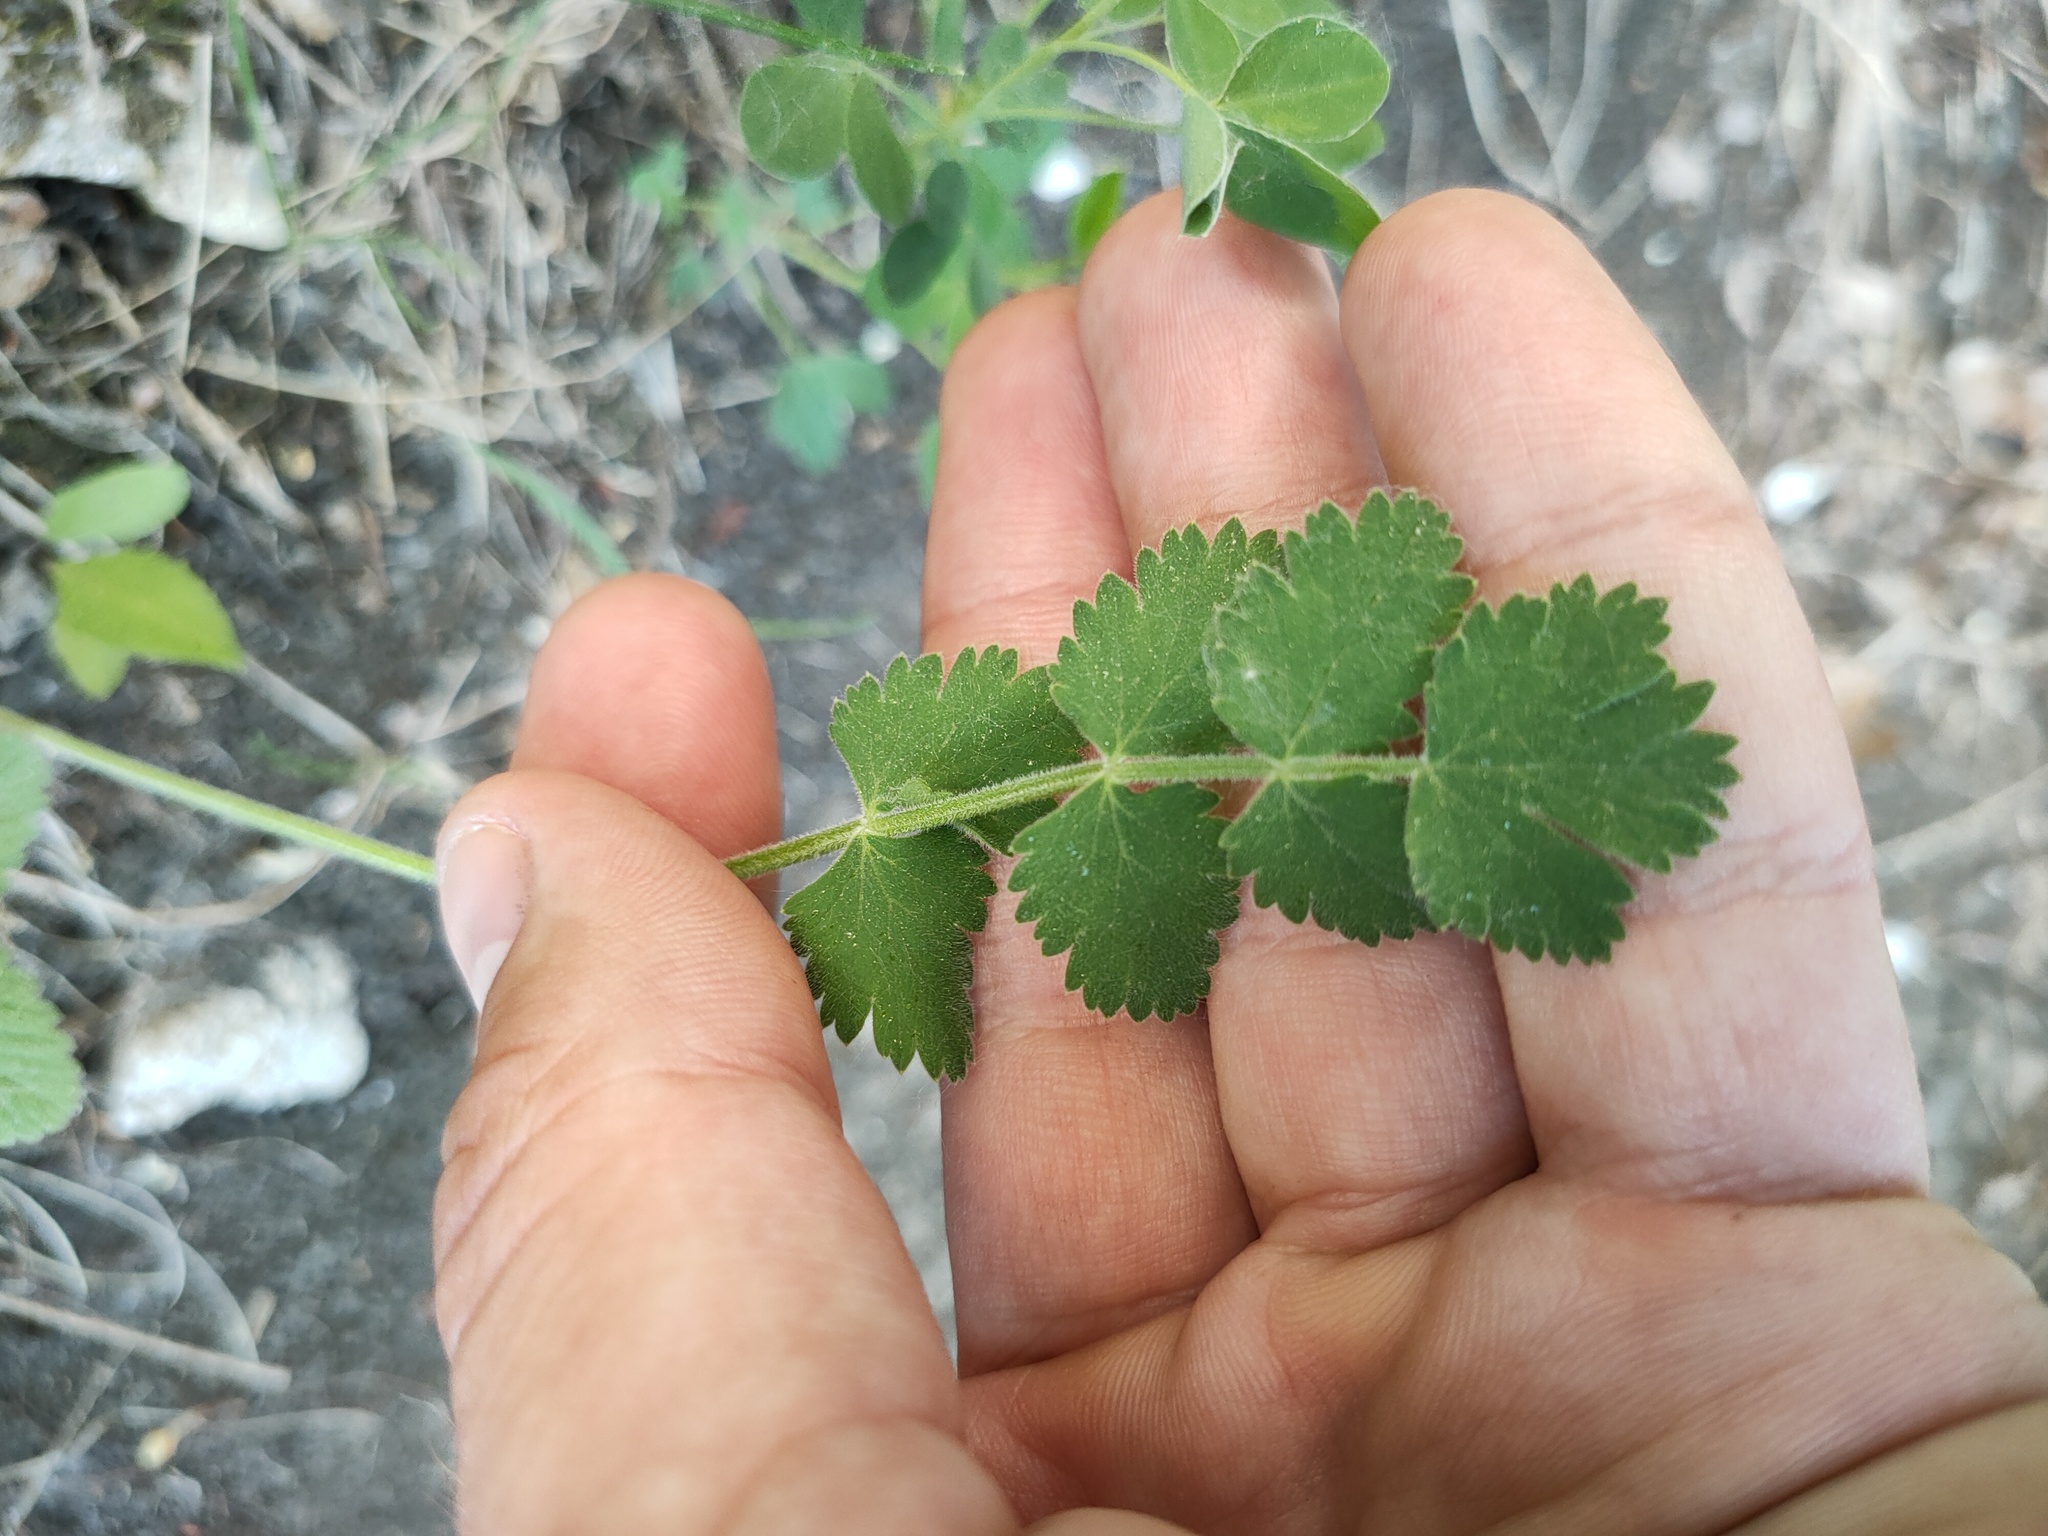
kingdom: Plantae
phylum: Tracheophyta
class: Magnoliopsida
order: Apiales
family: Apiaceae
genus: Pimpinella
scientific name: Pimpinella saxifraga
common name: Burnet-saxifrage
